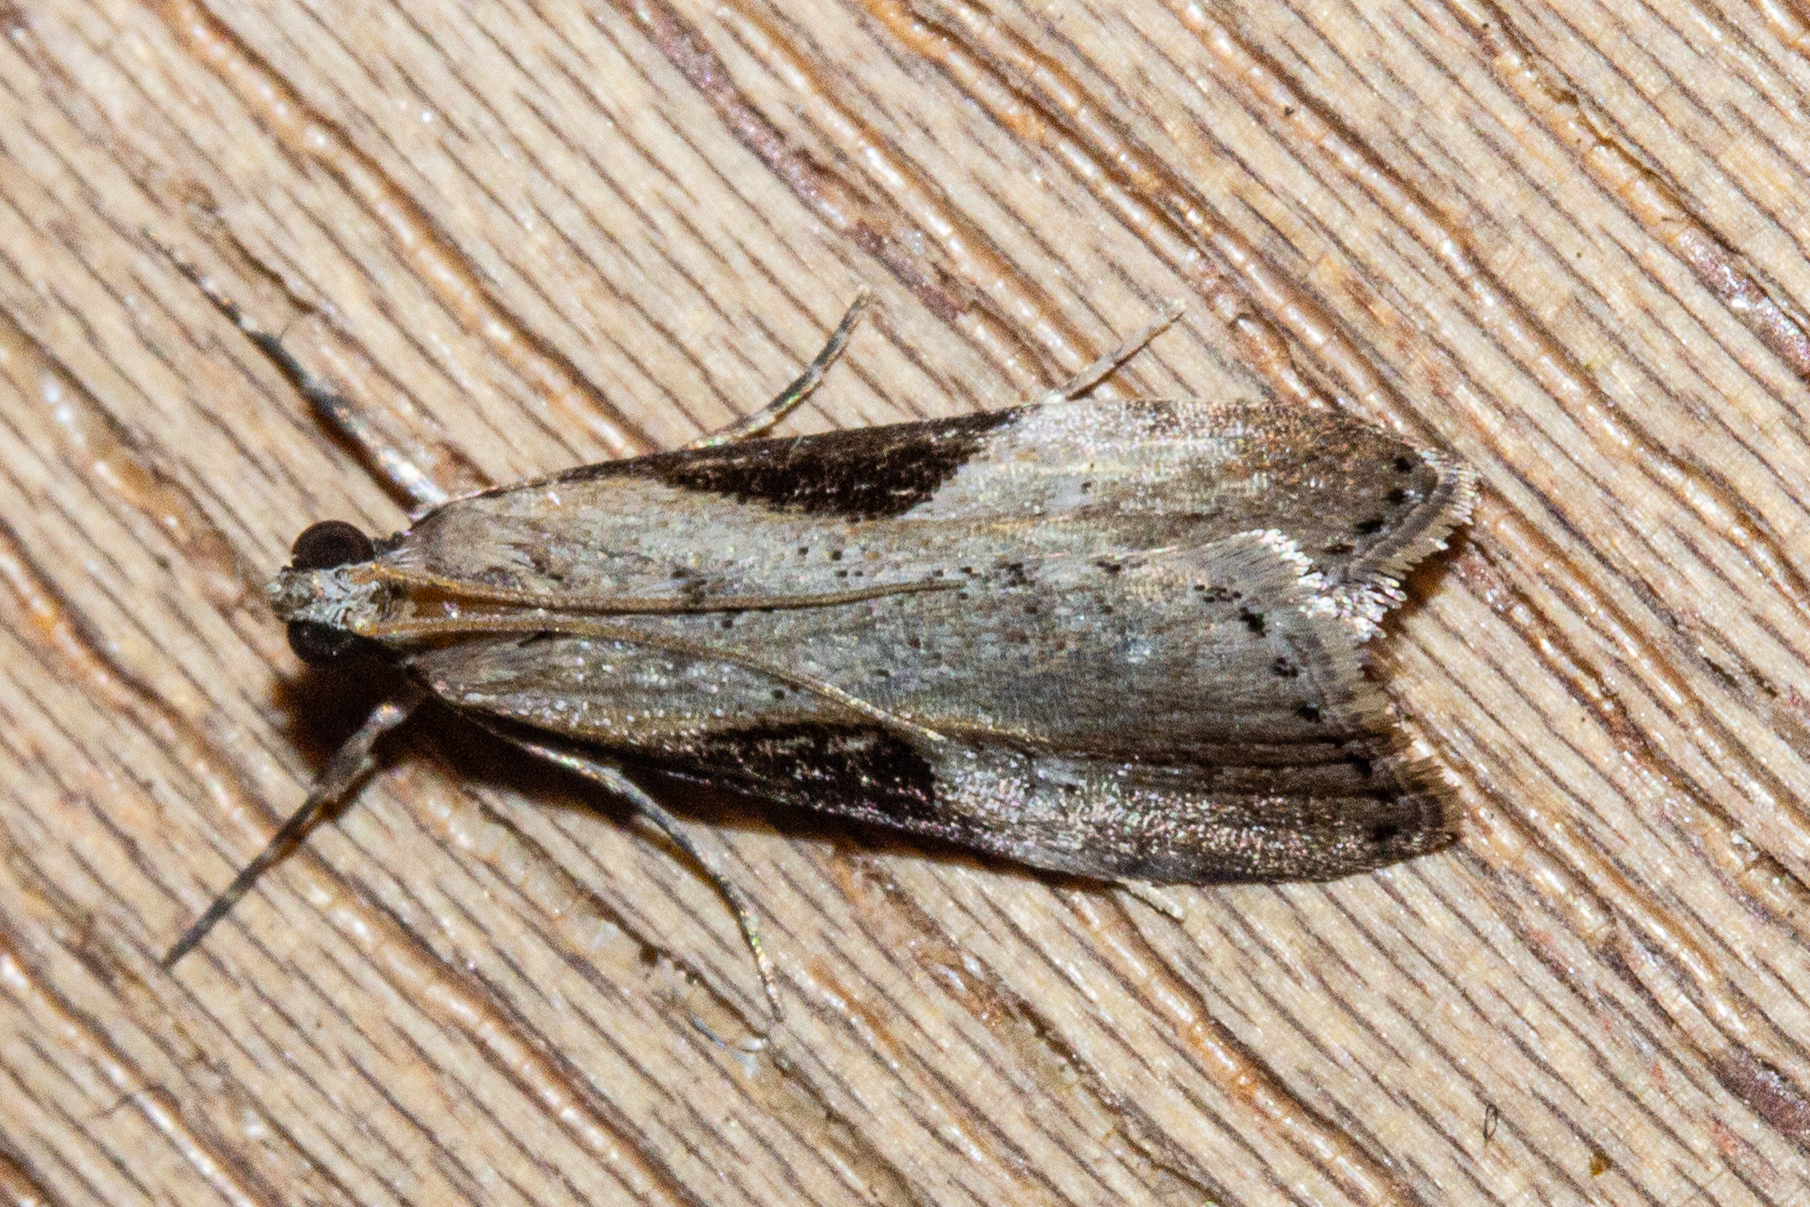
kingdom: Animalia
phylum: Arthropoda
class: Insecta
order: Lepidoptera
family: Crambidae
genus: Eudonia
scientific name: Eudonia pongalis
